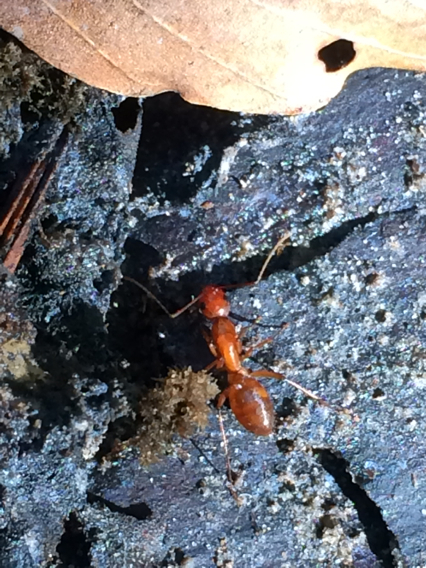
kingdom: Animalia
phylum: Arthropoda
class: Insecta
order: Hymenoptera
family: Formicidae
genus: Camponotus
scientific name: Camponotus castaneus
